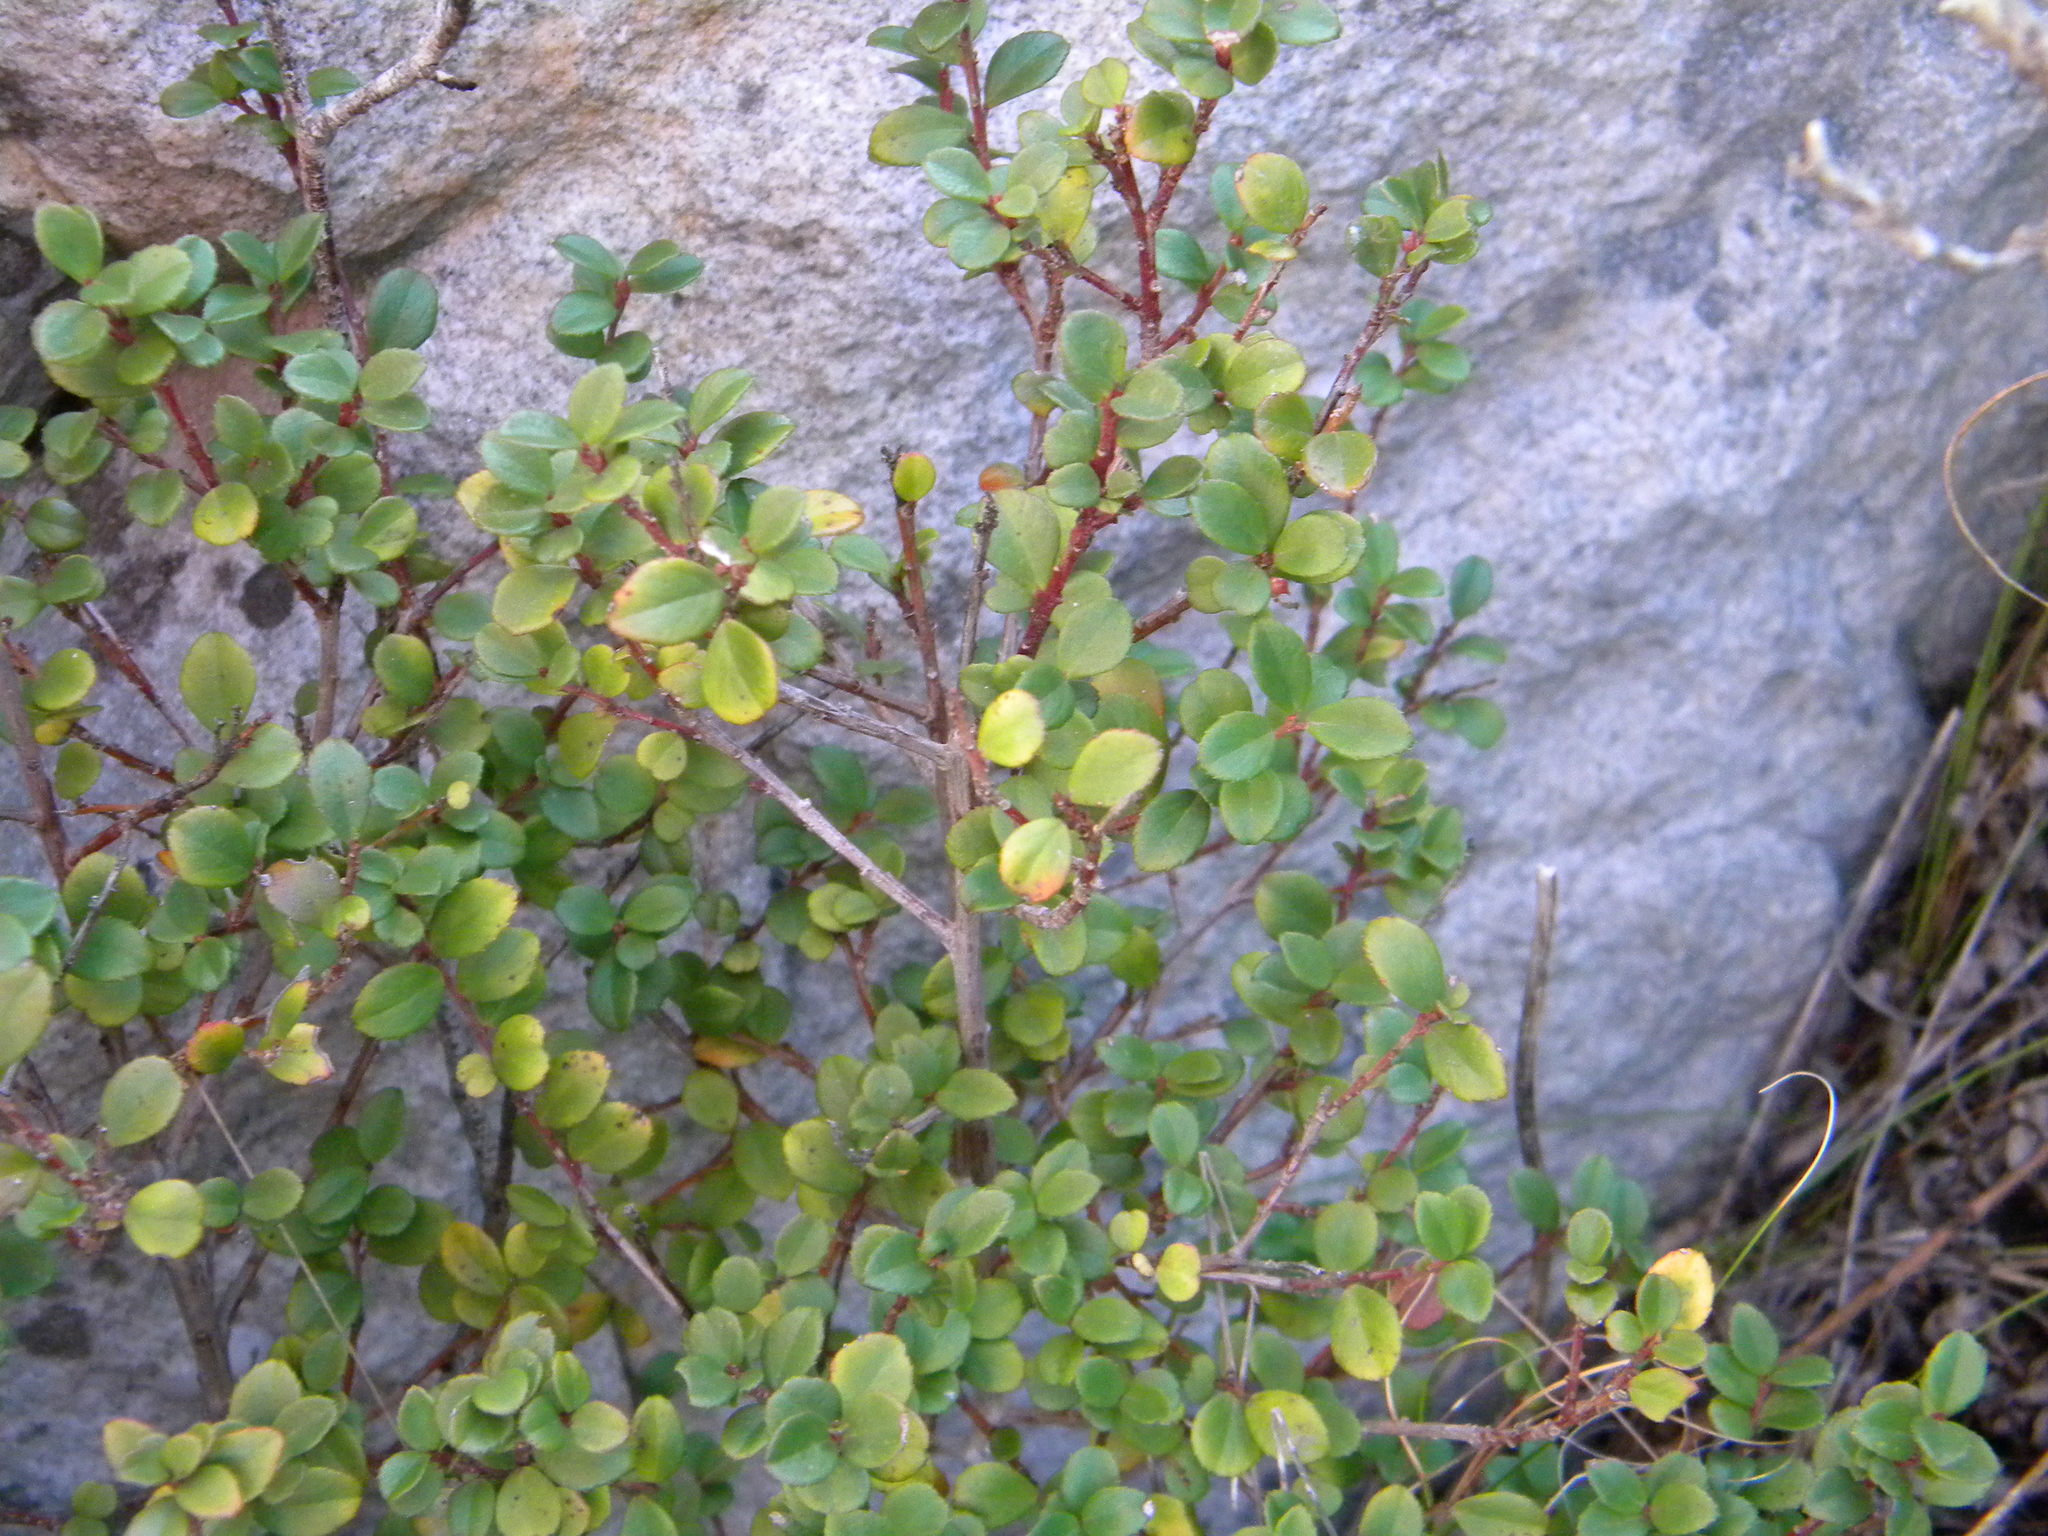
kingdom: Plantae
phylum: Tracheophyta
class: Magnoliopsida
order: Ericales
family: Primulaceae
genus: Myrsine
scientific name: Myrsine africana
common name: African-boxwood
